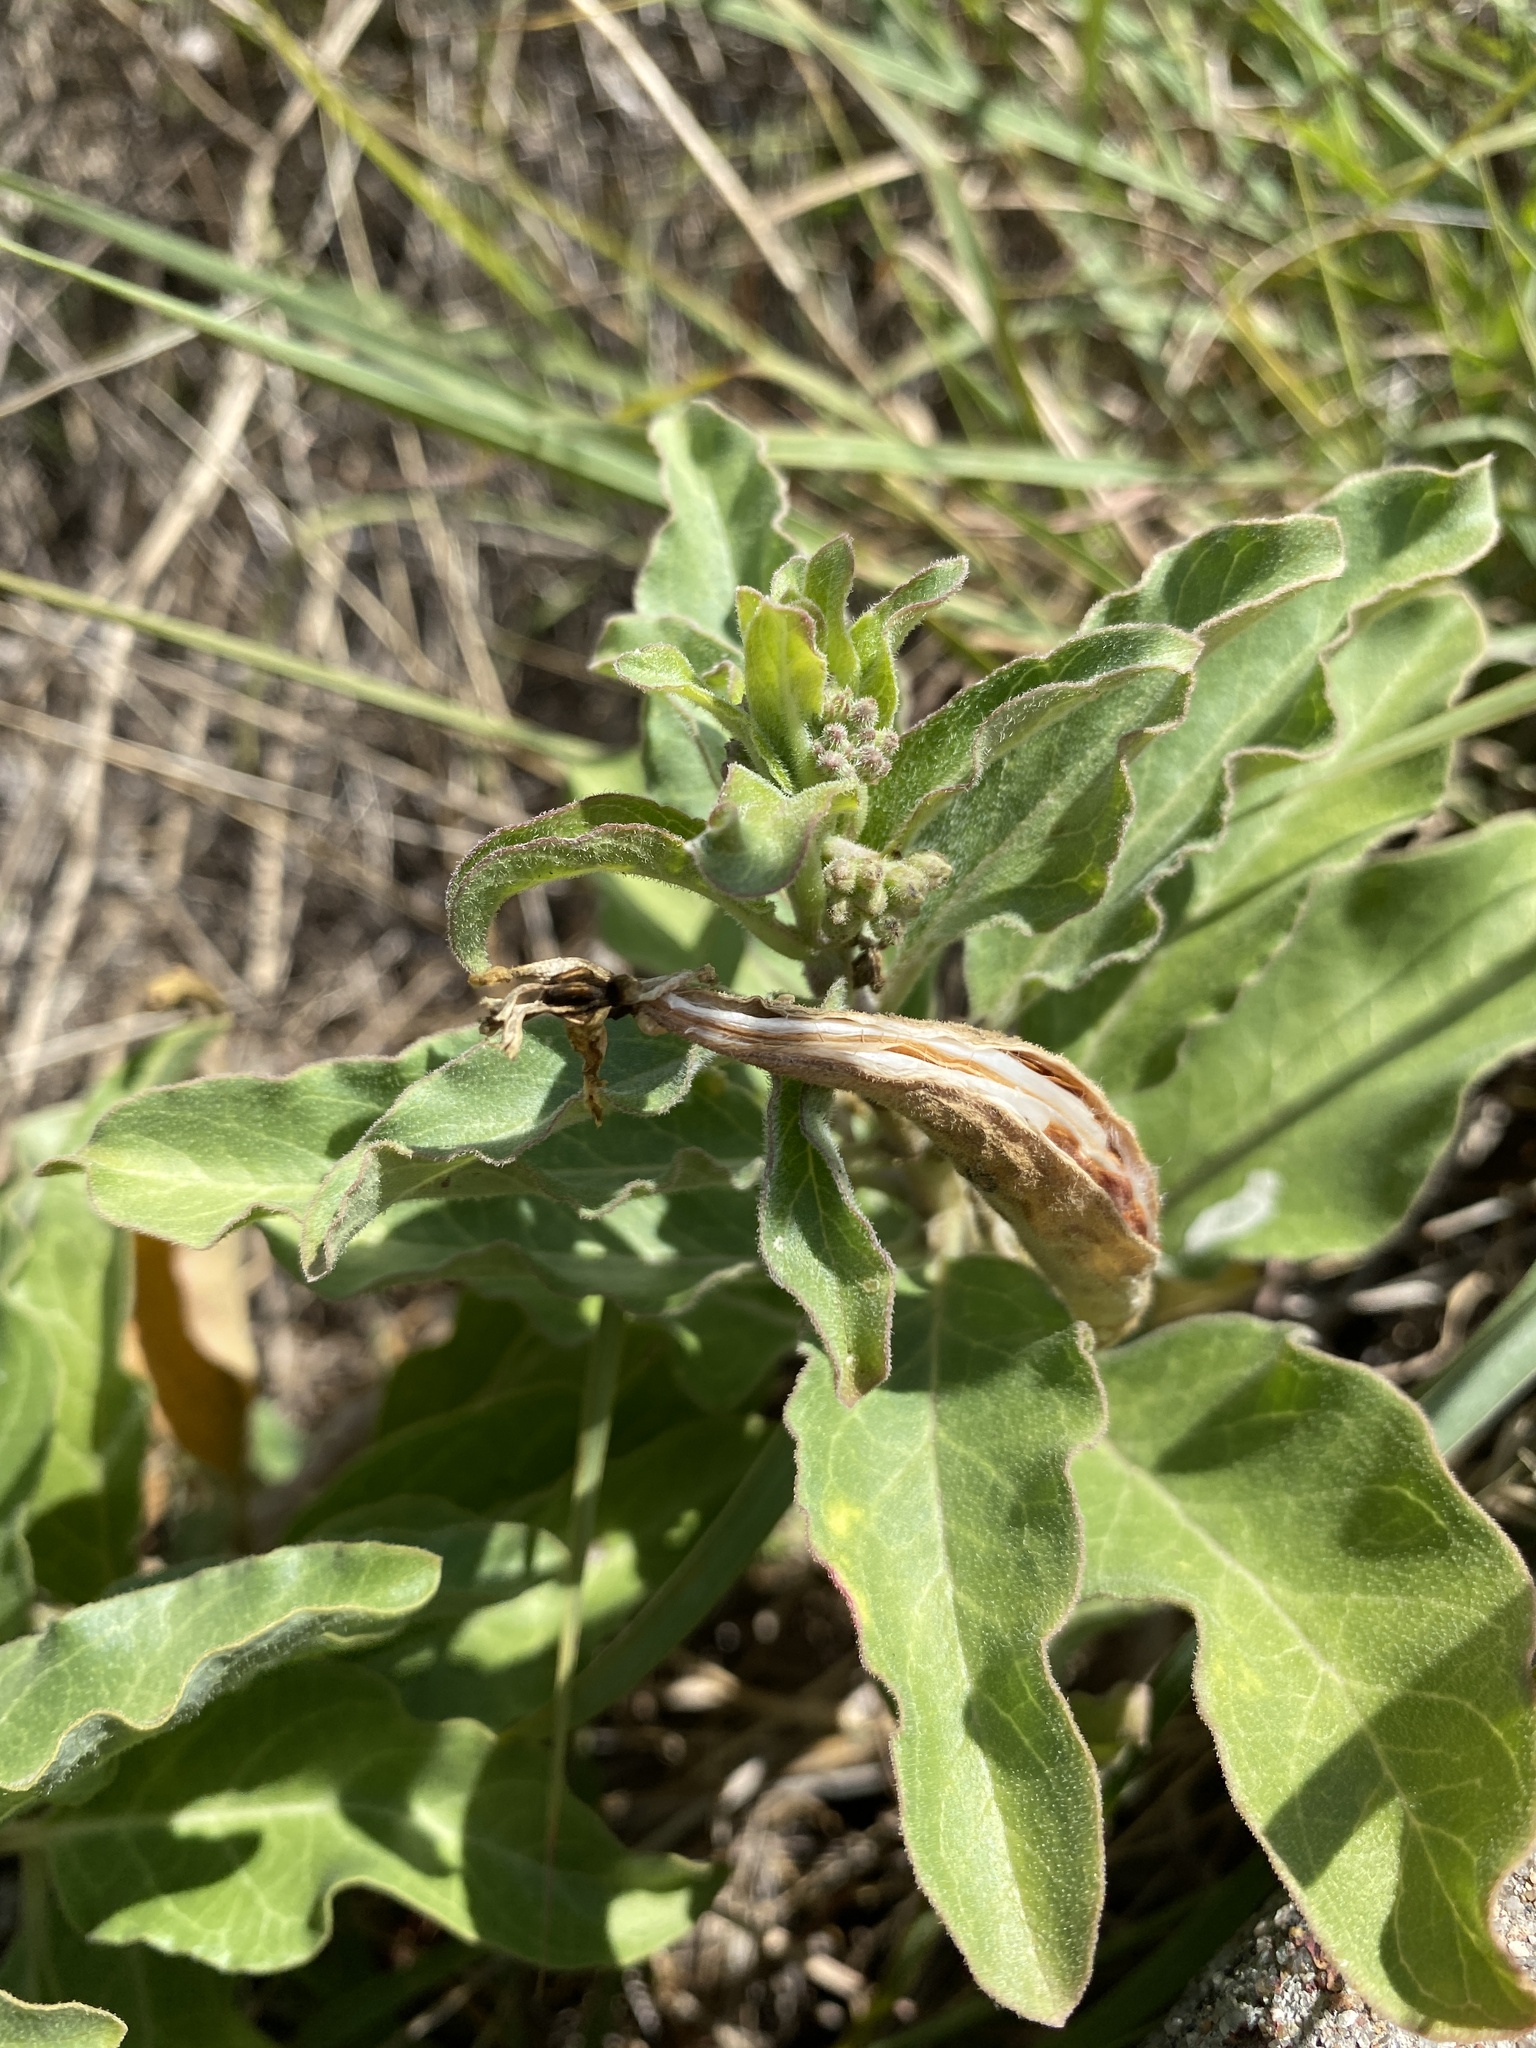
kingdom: Plantae
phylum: Tracheophyta
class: Magnoliopsida
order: Gentianales
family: Apocynaceae
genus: Asclepias
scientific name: Asclepias oenotheroides
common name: Zizotes milkweed
